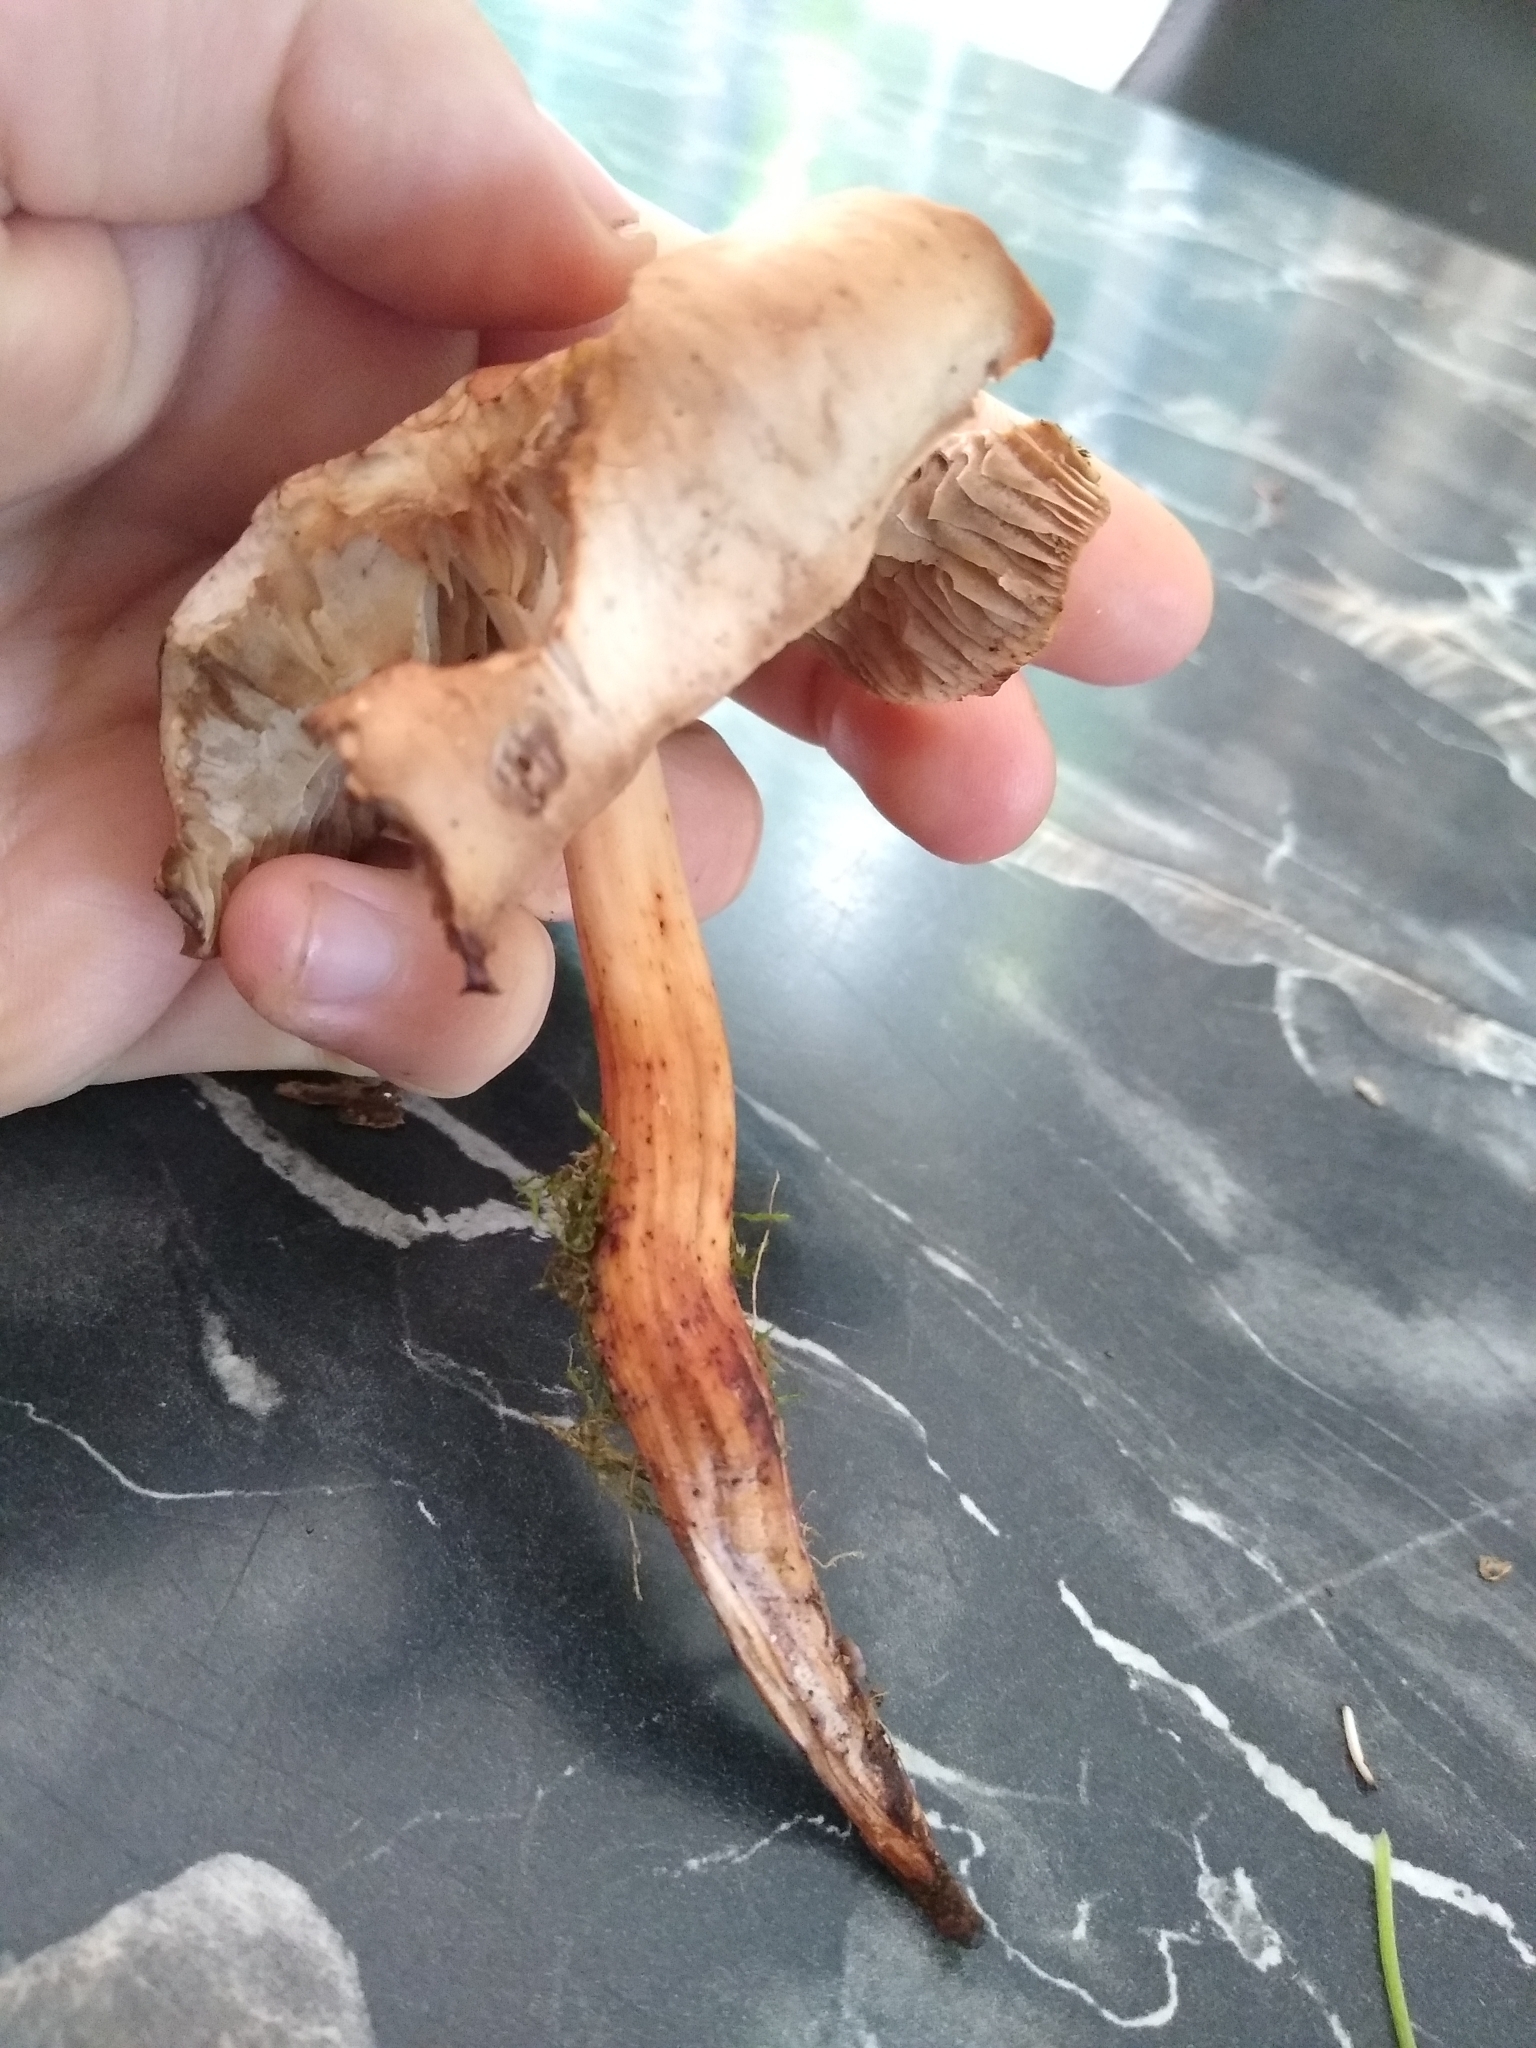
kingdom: Fungi
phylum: Basidiomycota
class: Agaricomycetes
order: Agaricales
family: Omphalotaceae
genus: Gymnopus
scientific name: Gymnopus fusipes
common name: Spindle shank
